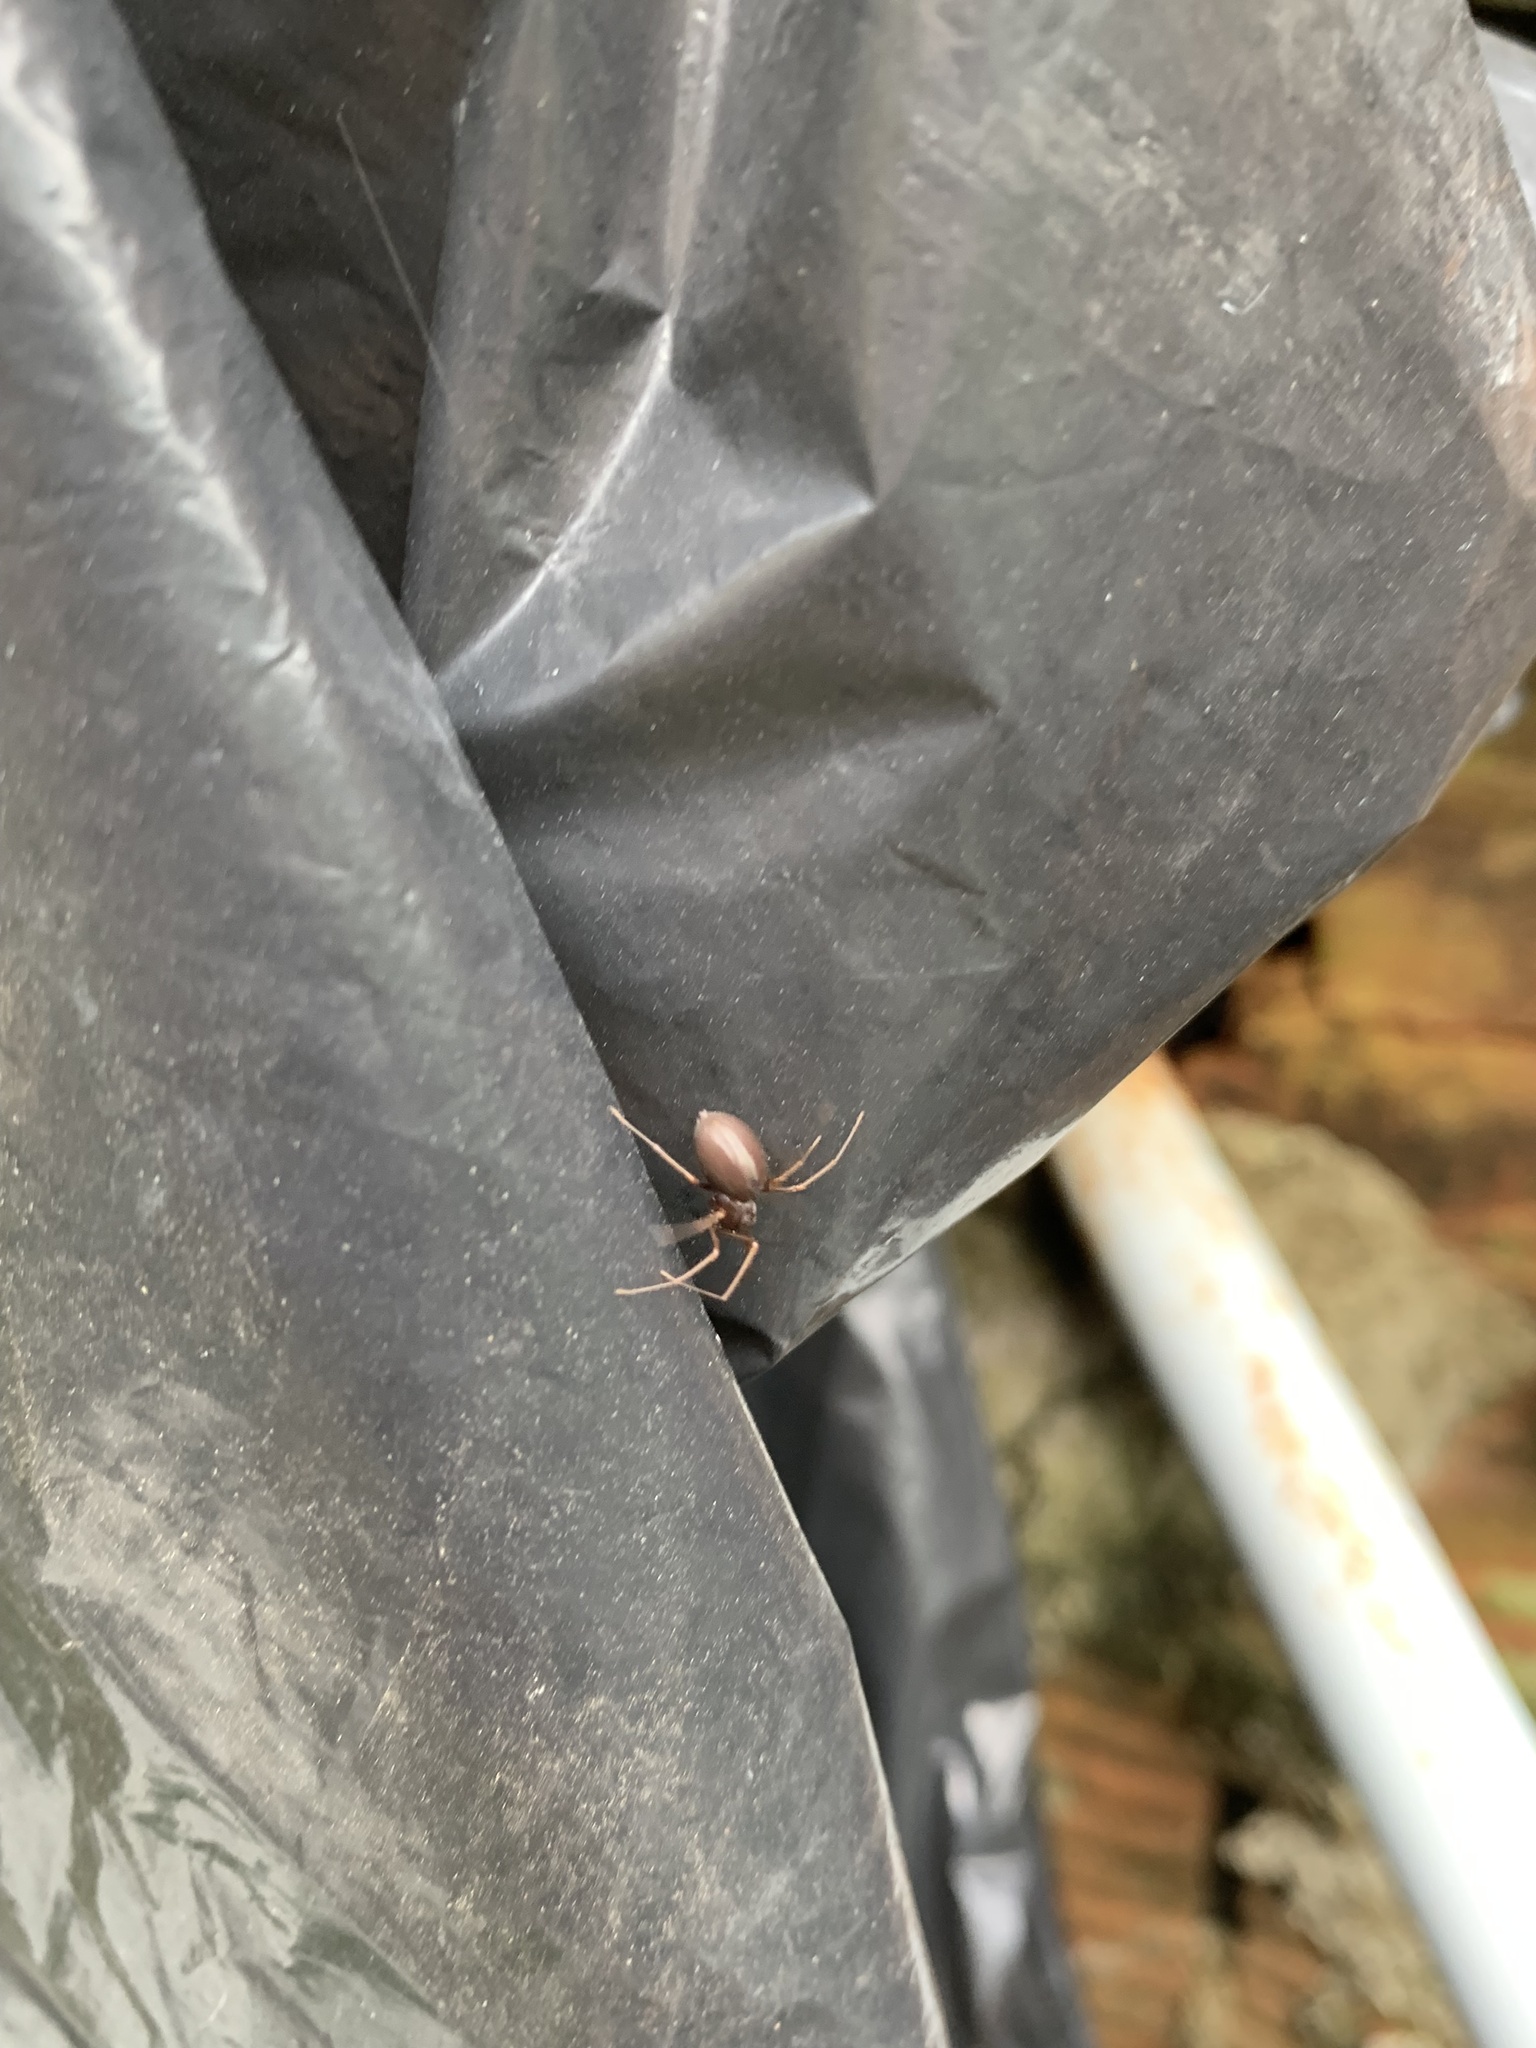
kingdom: Animalia
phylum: Arthropoda
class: Arachnida
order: Araneae
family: Scytodidae
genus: Scytodes
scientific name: Scytodes fusca
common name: Spitting spiders
